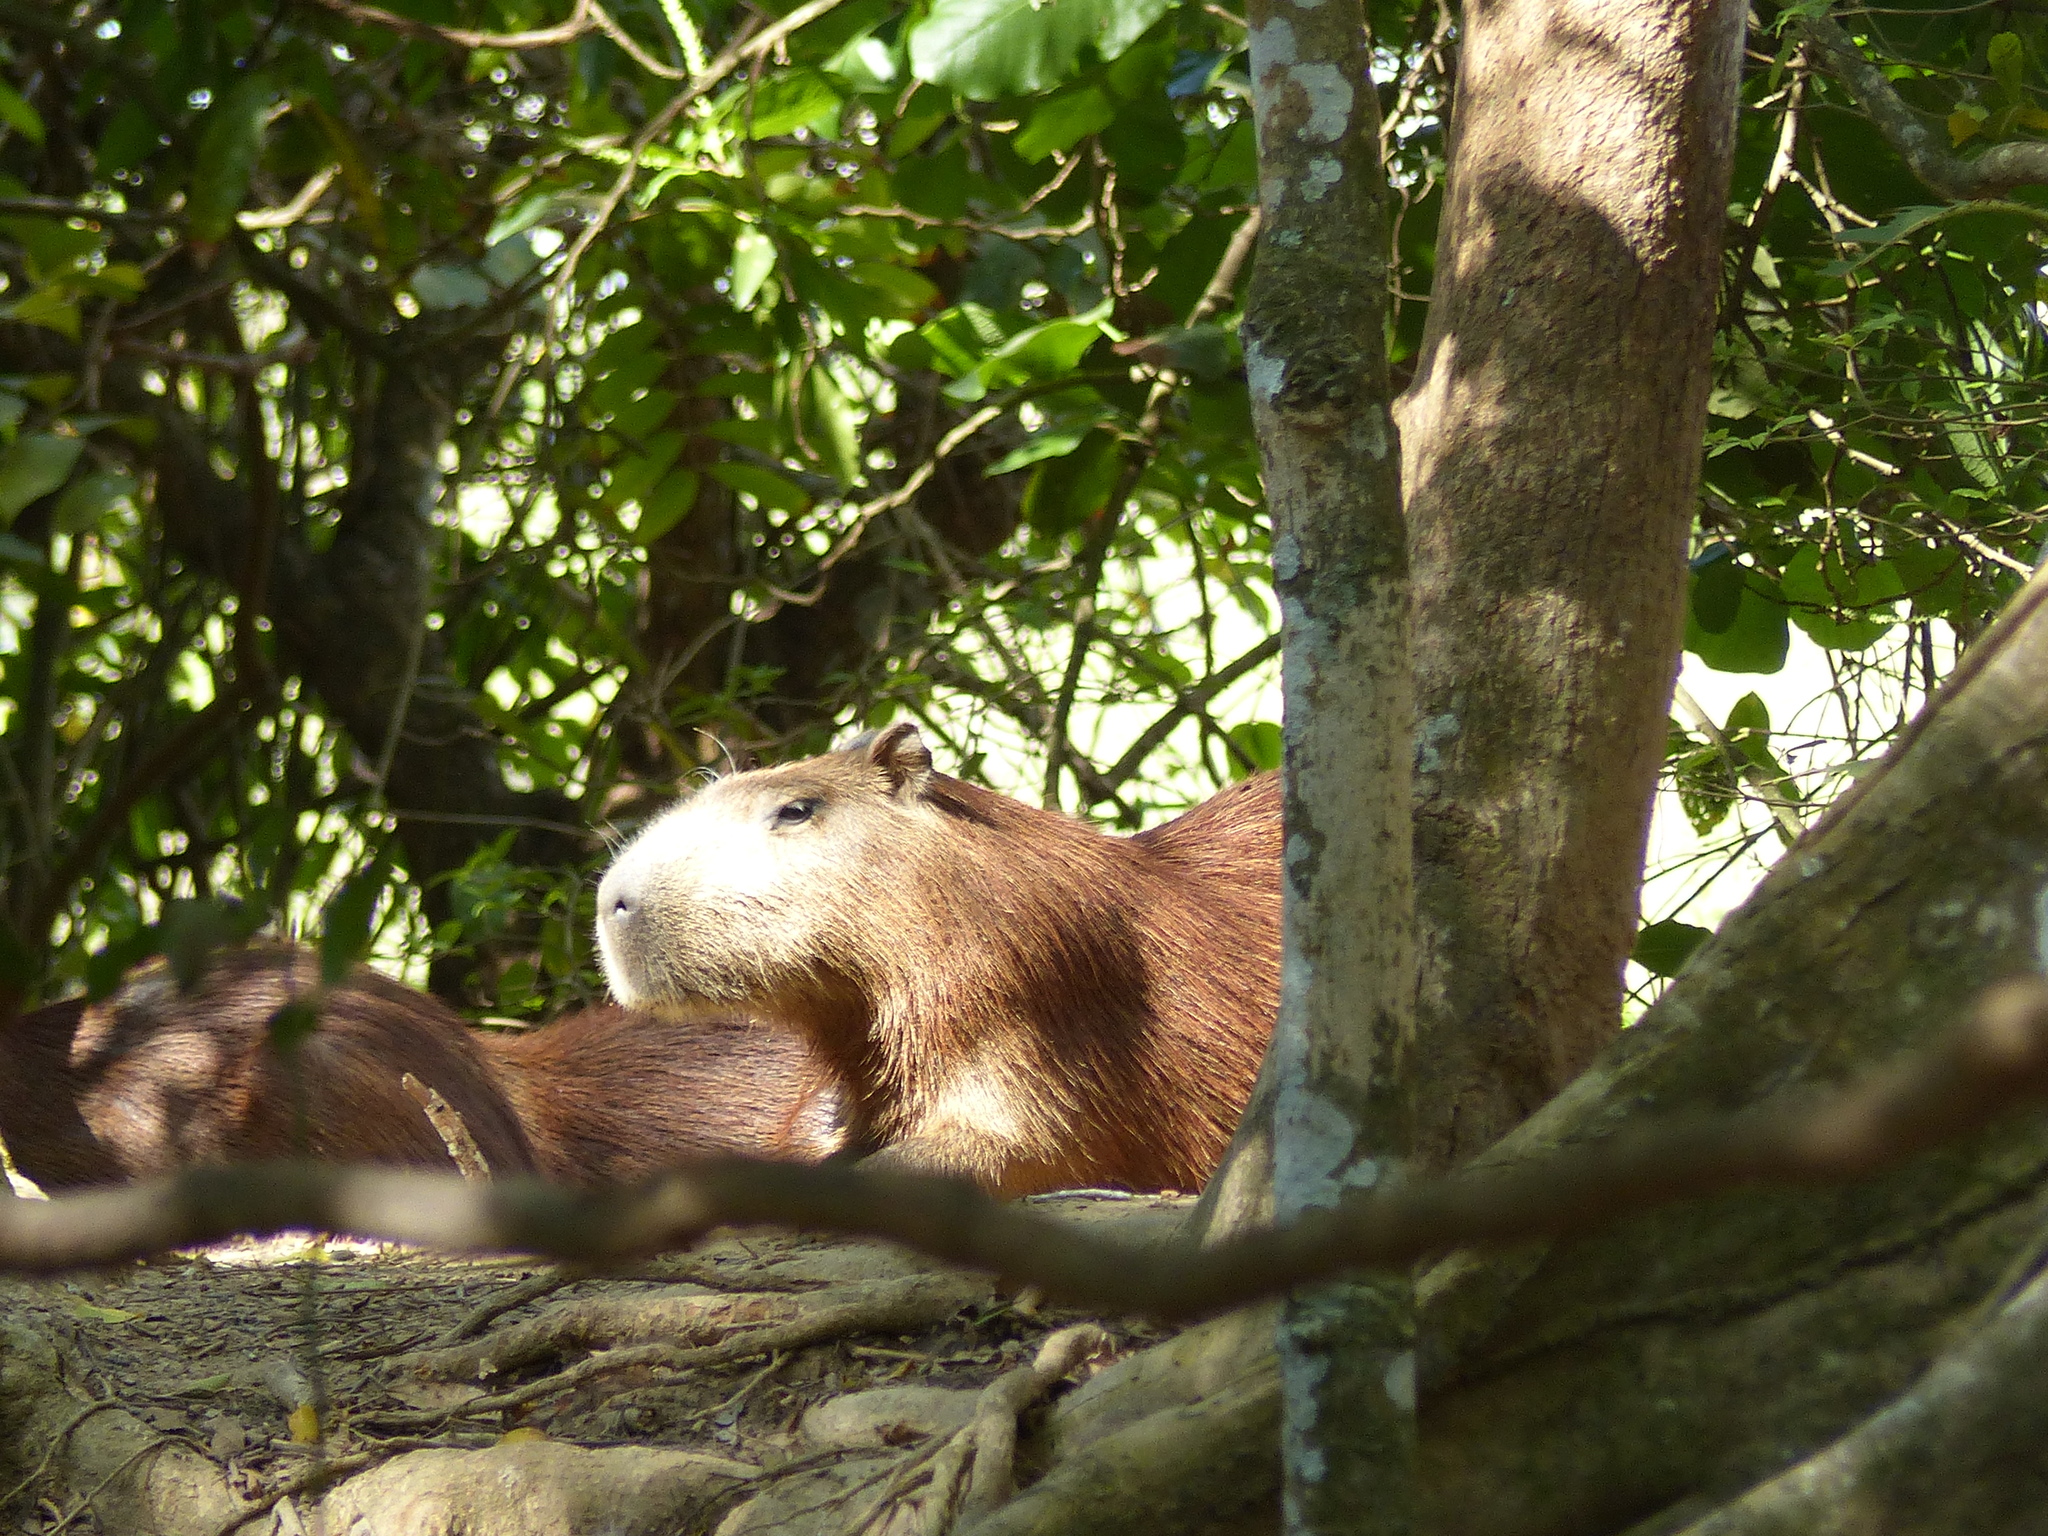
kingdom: Animalia
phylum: Chordata
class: Mammalia
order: Rodentia
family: Caviidae
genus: Hydrochoerus
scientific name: Hydrochoerus hydrochaeris
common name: Capybara
